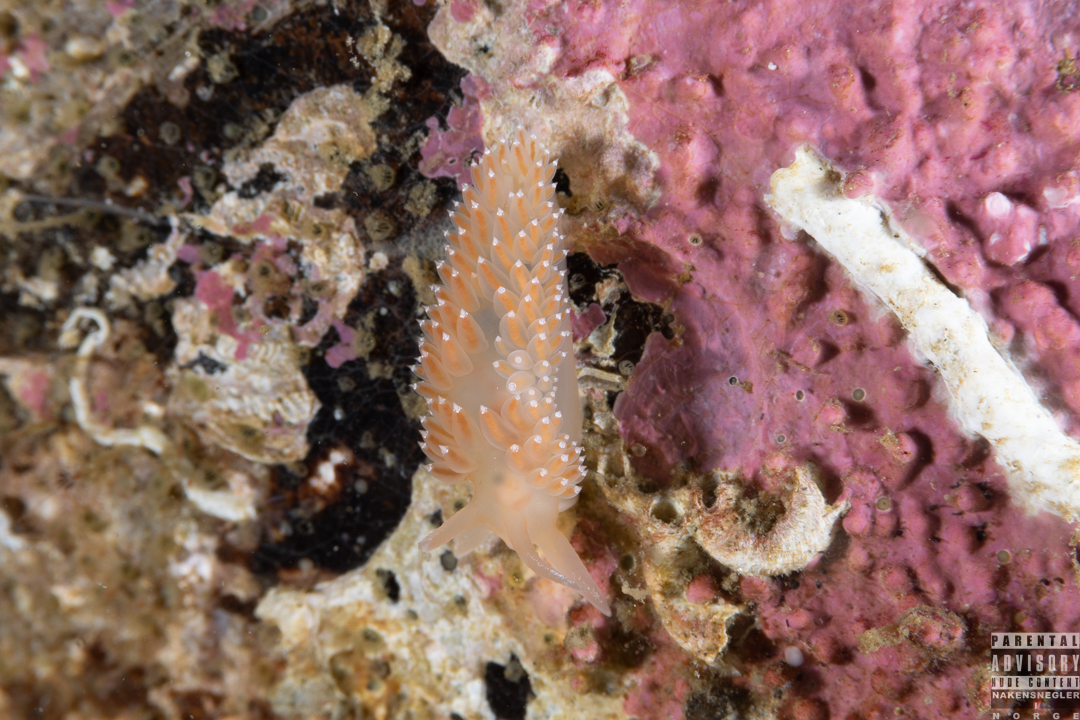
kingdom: Animalia
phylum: Mollusca
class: Gastropoda
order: Nudibranchia
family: Coryphellidae
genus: Coryphella
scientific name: Coryphella verrucosa
